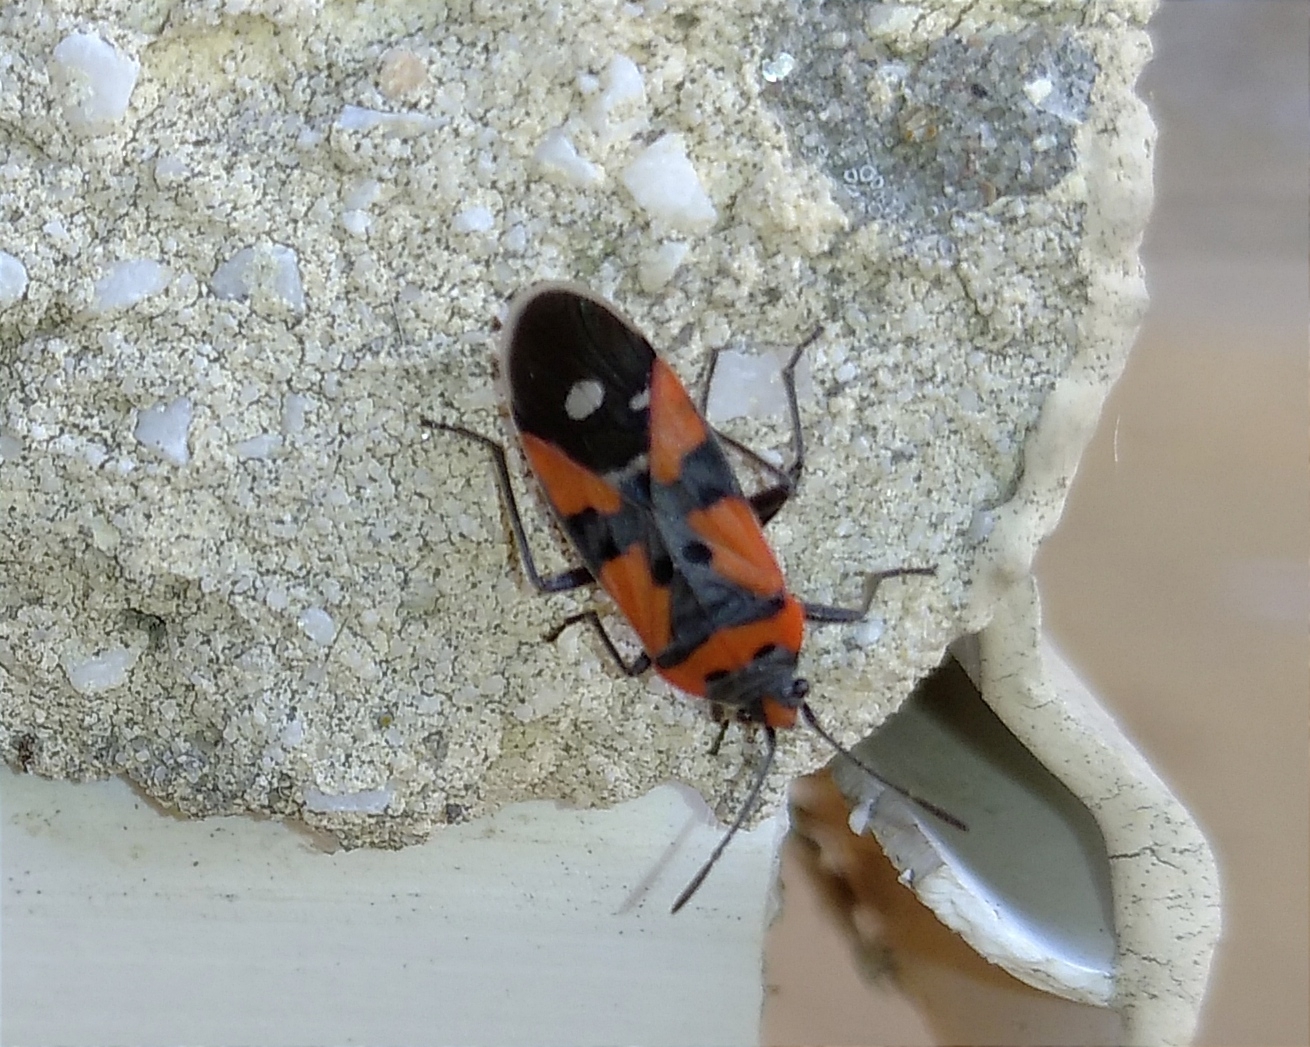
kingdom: Animalia
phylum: Arthropoda
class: Insecta
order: Hemiptera
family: Lygaeidae
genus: Lygaeus
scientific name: Lygaeus equestris
